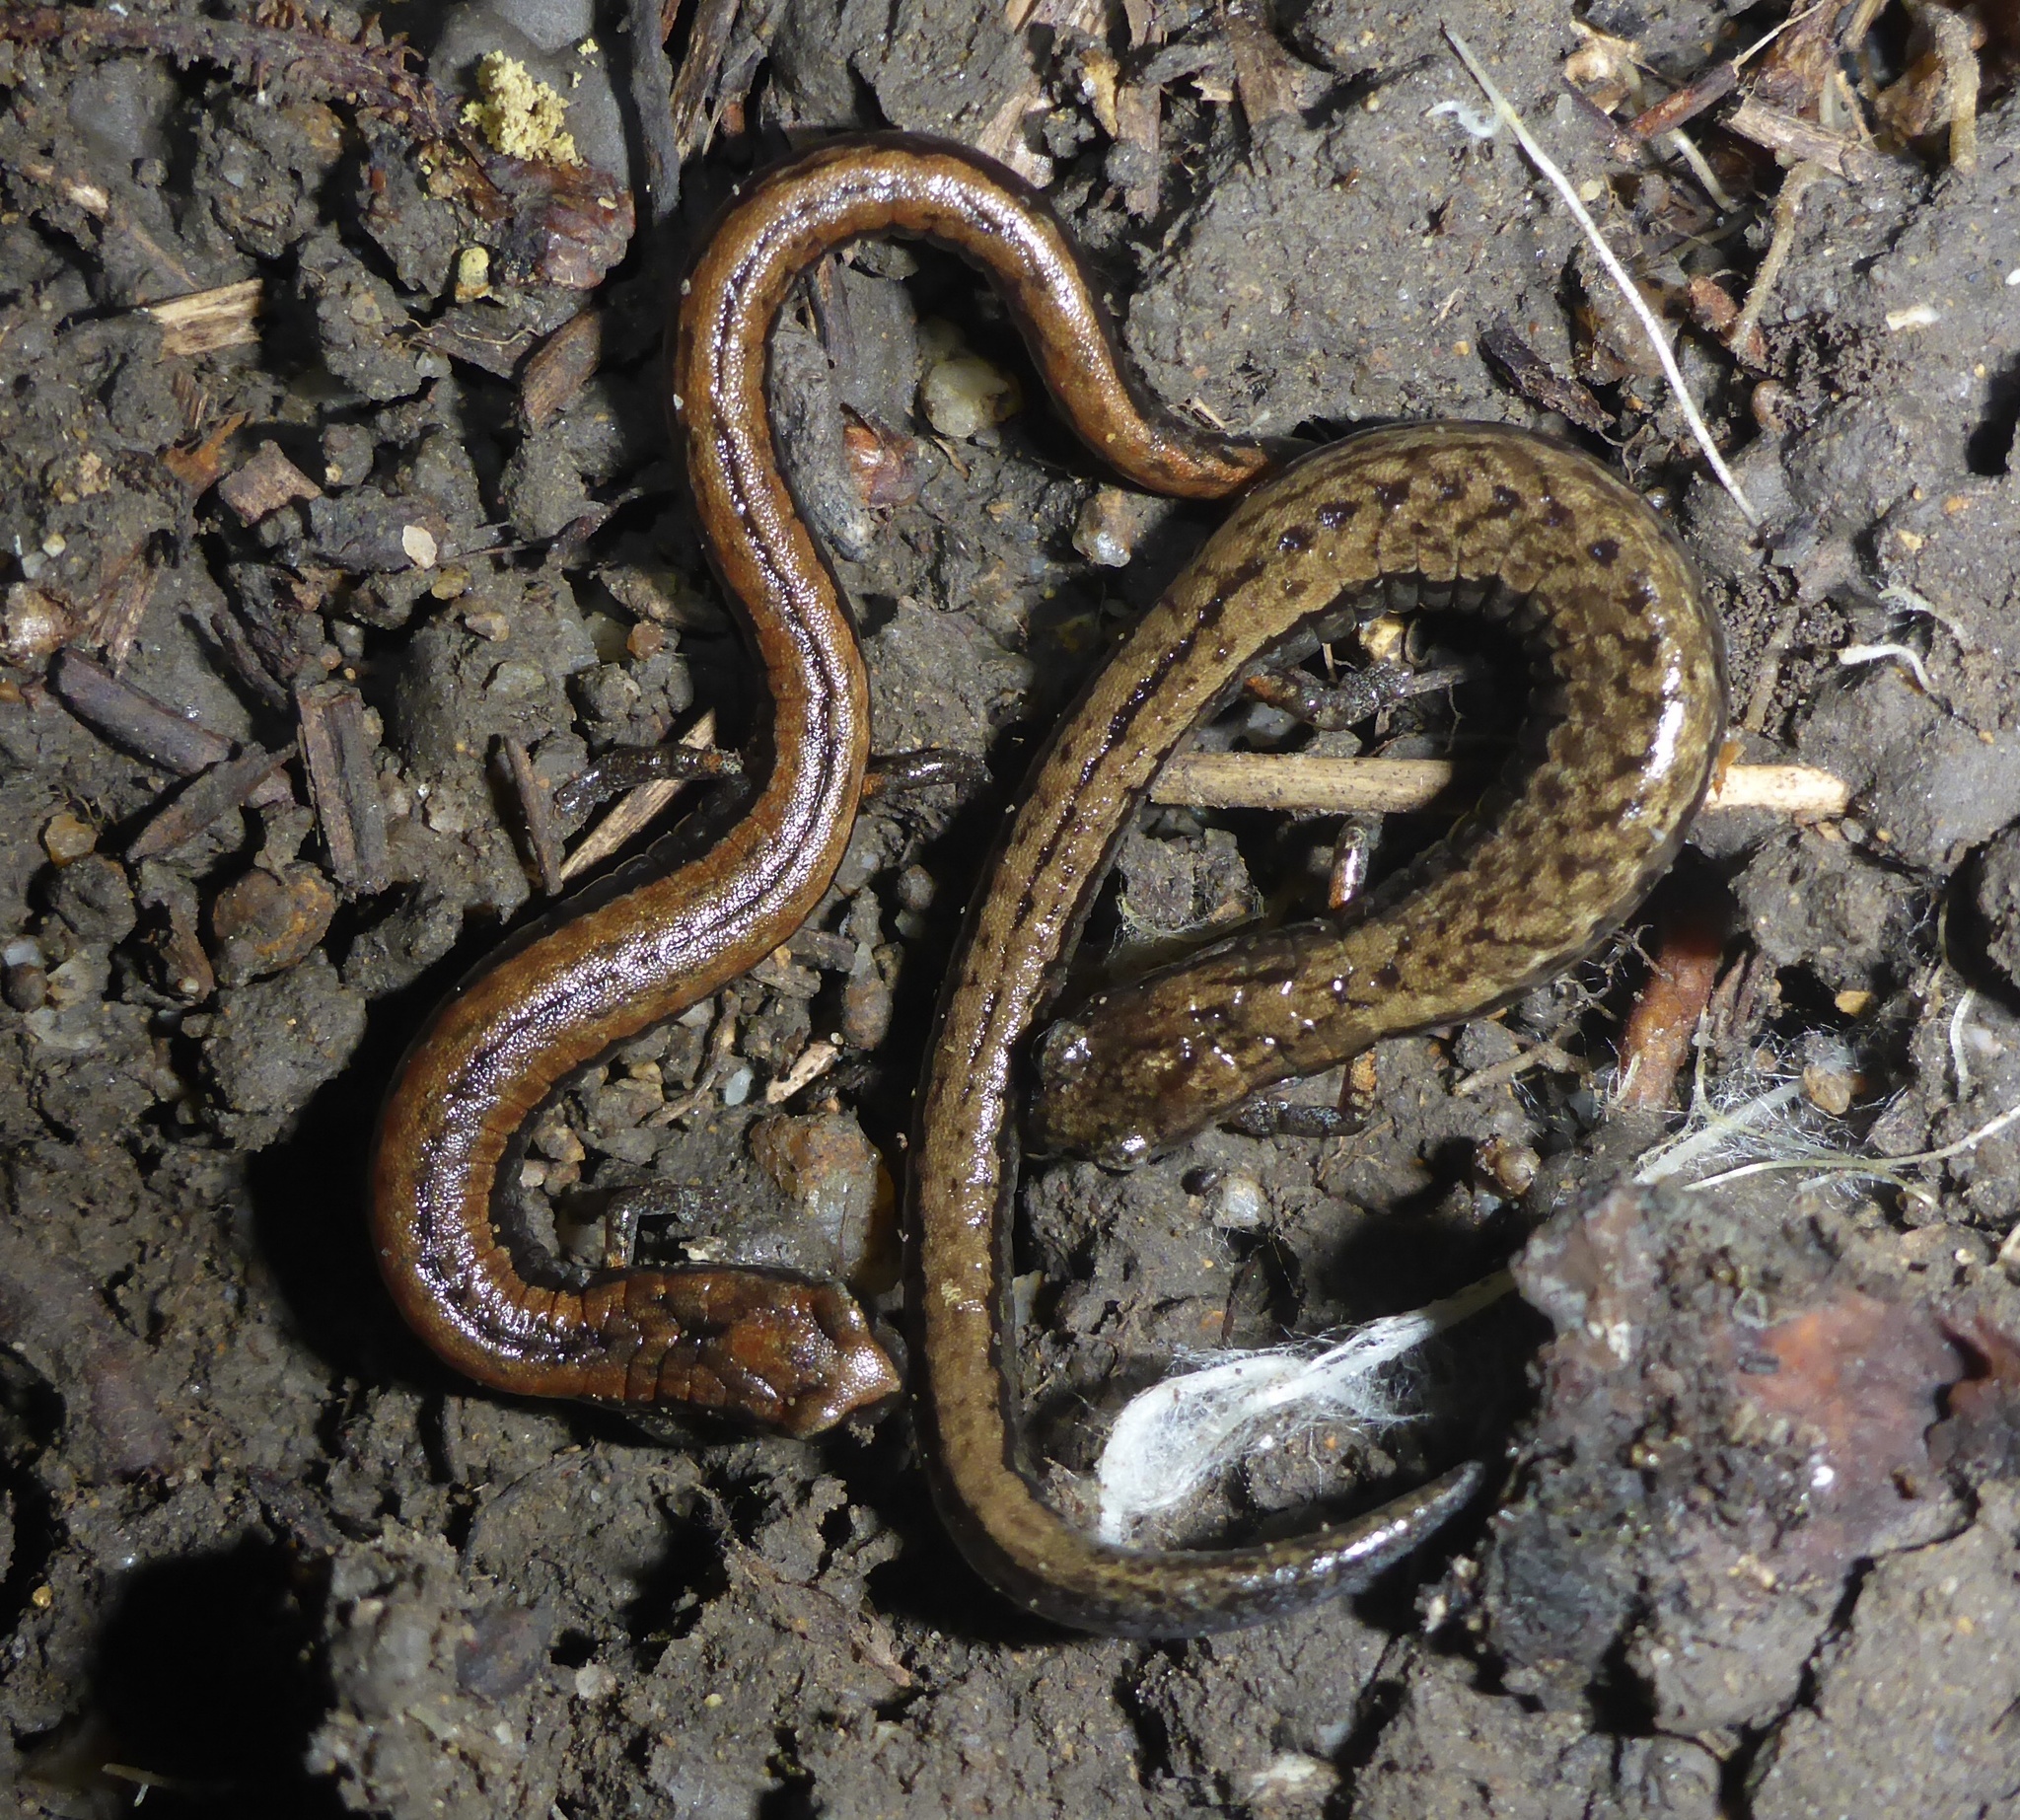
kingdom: Animalia
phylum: Chordata
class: Amphibia
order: Caudata
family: Plethodontidae
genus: Batrachoseps
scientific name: Batrachoseps attenuatus
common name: California slender salamander
